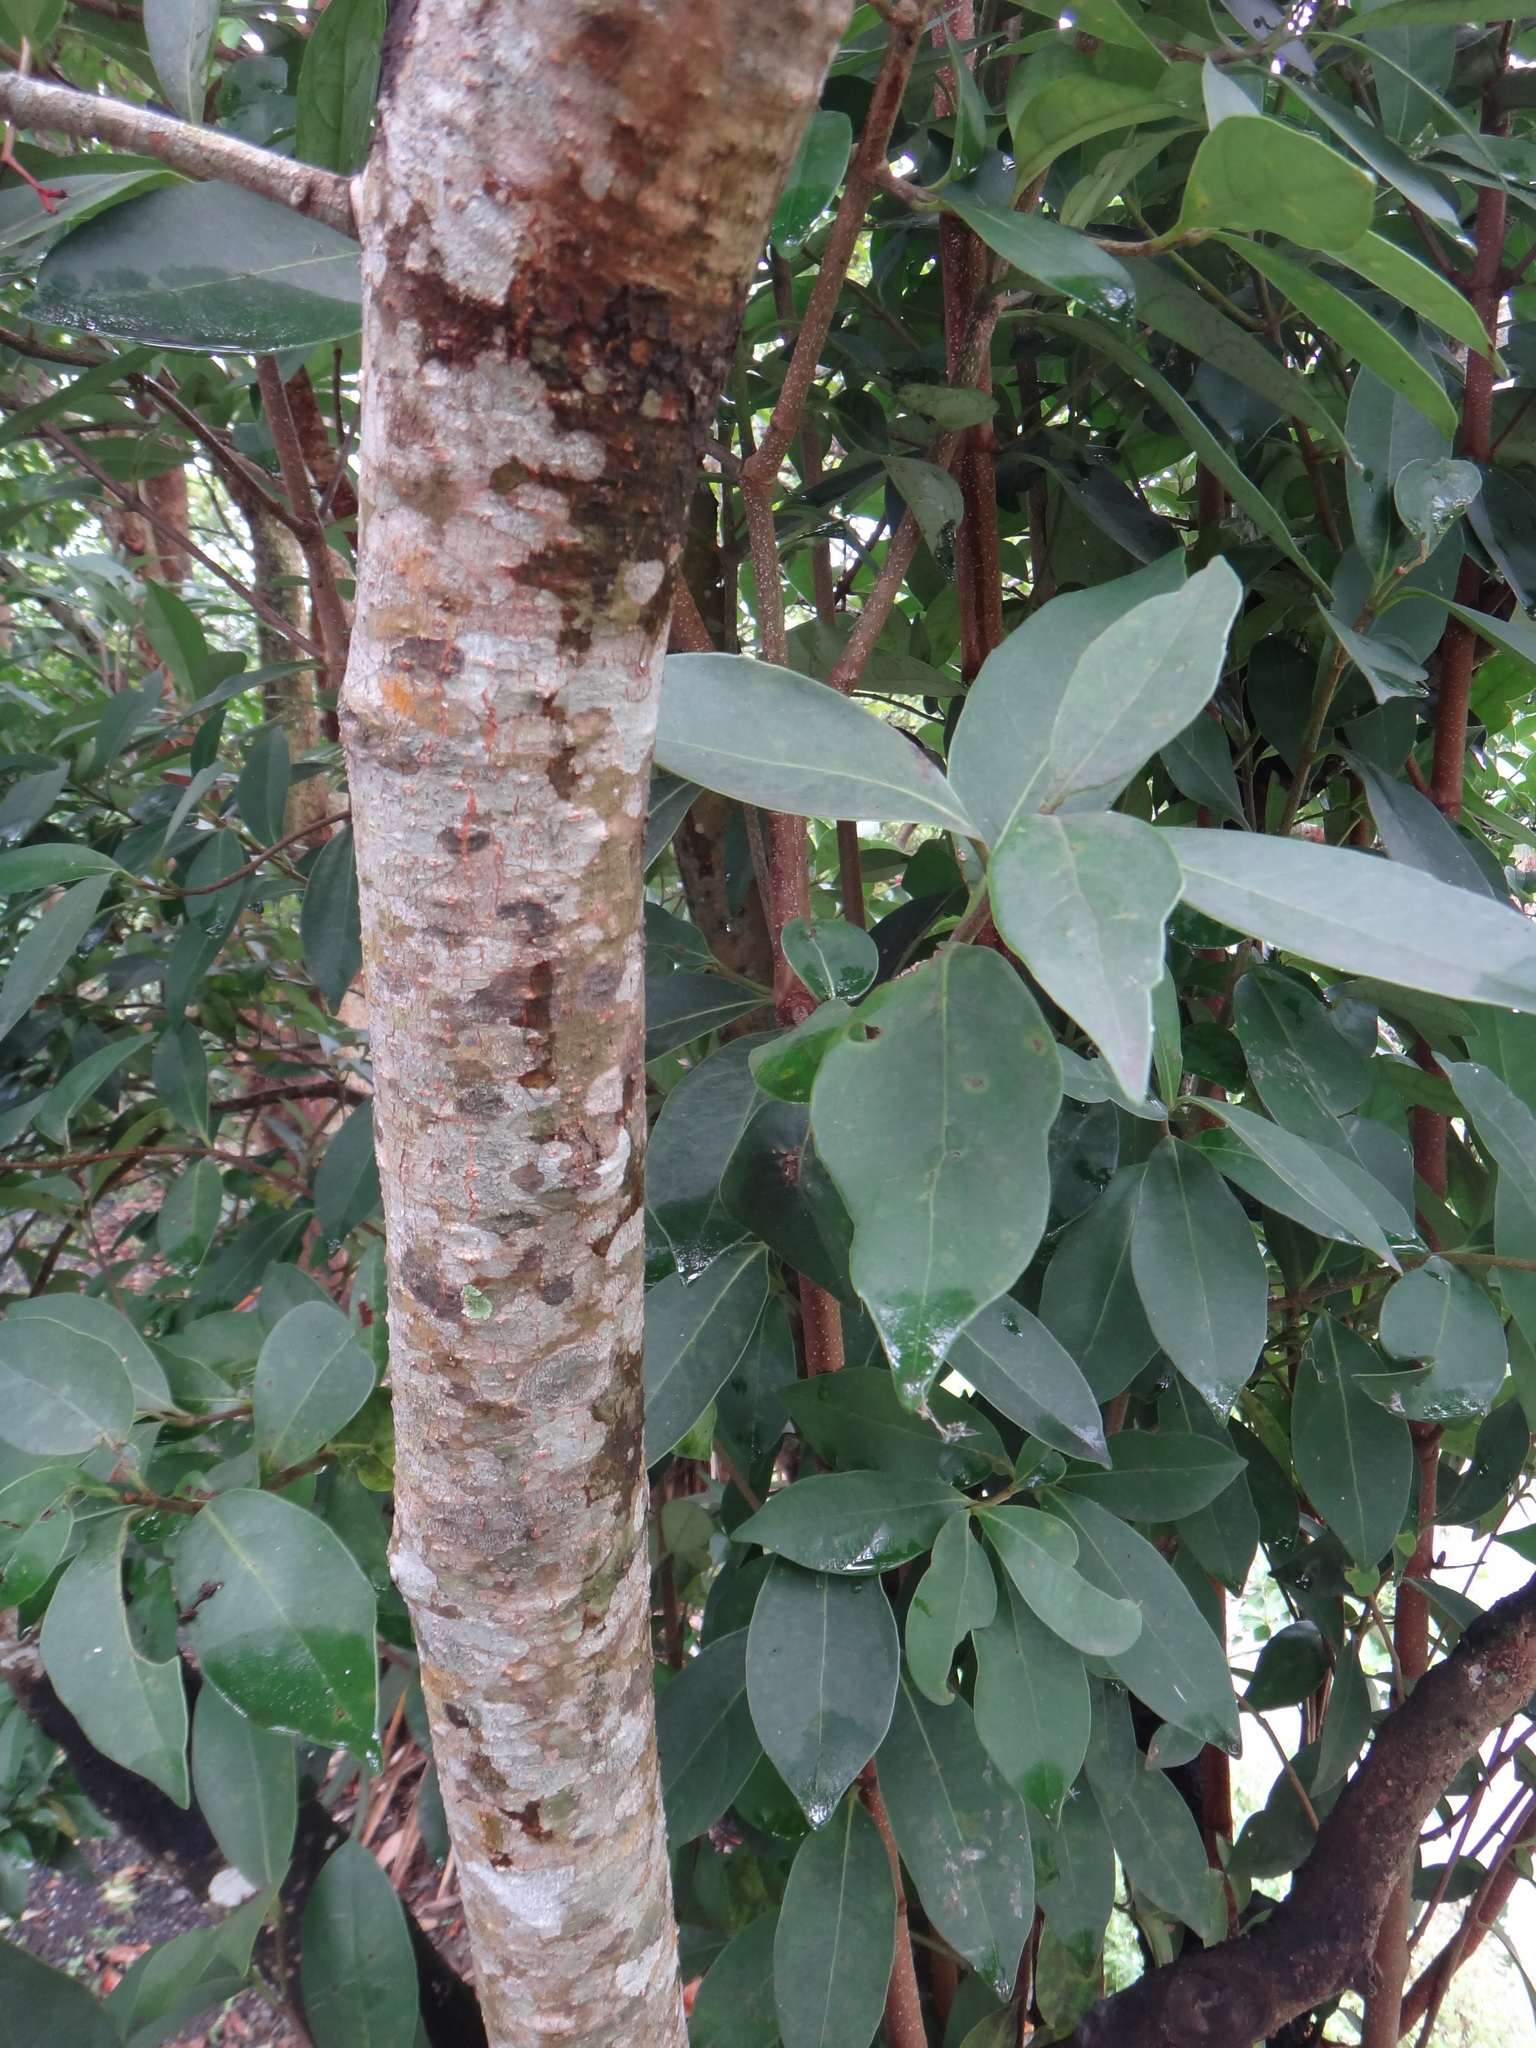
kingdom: Plantae
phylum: Tracheophyta
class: Magnoliopsida
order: Dipsacales
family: Viburnaceae
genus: Viburnum
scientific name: Viburnum odoratissimum
